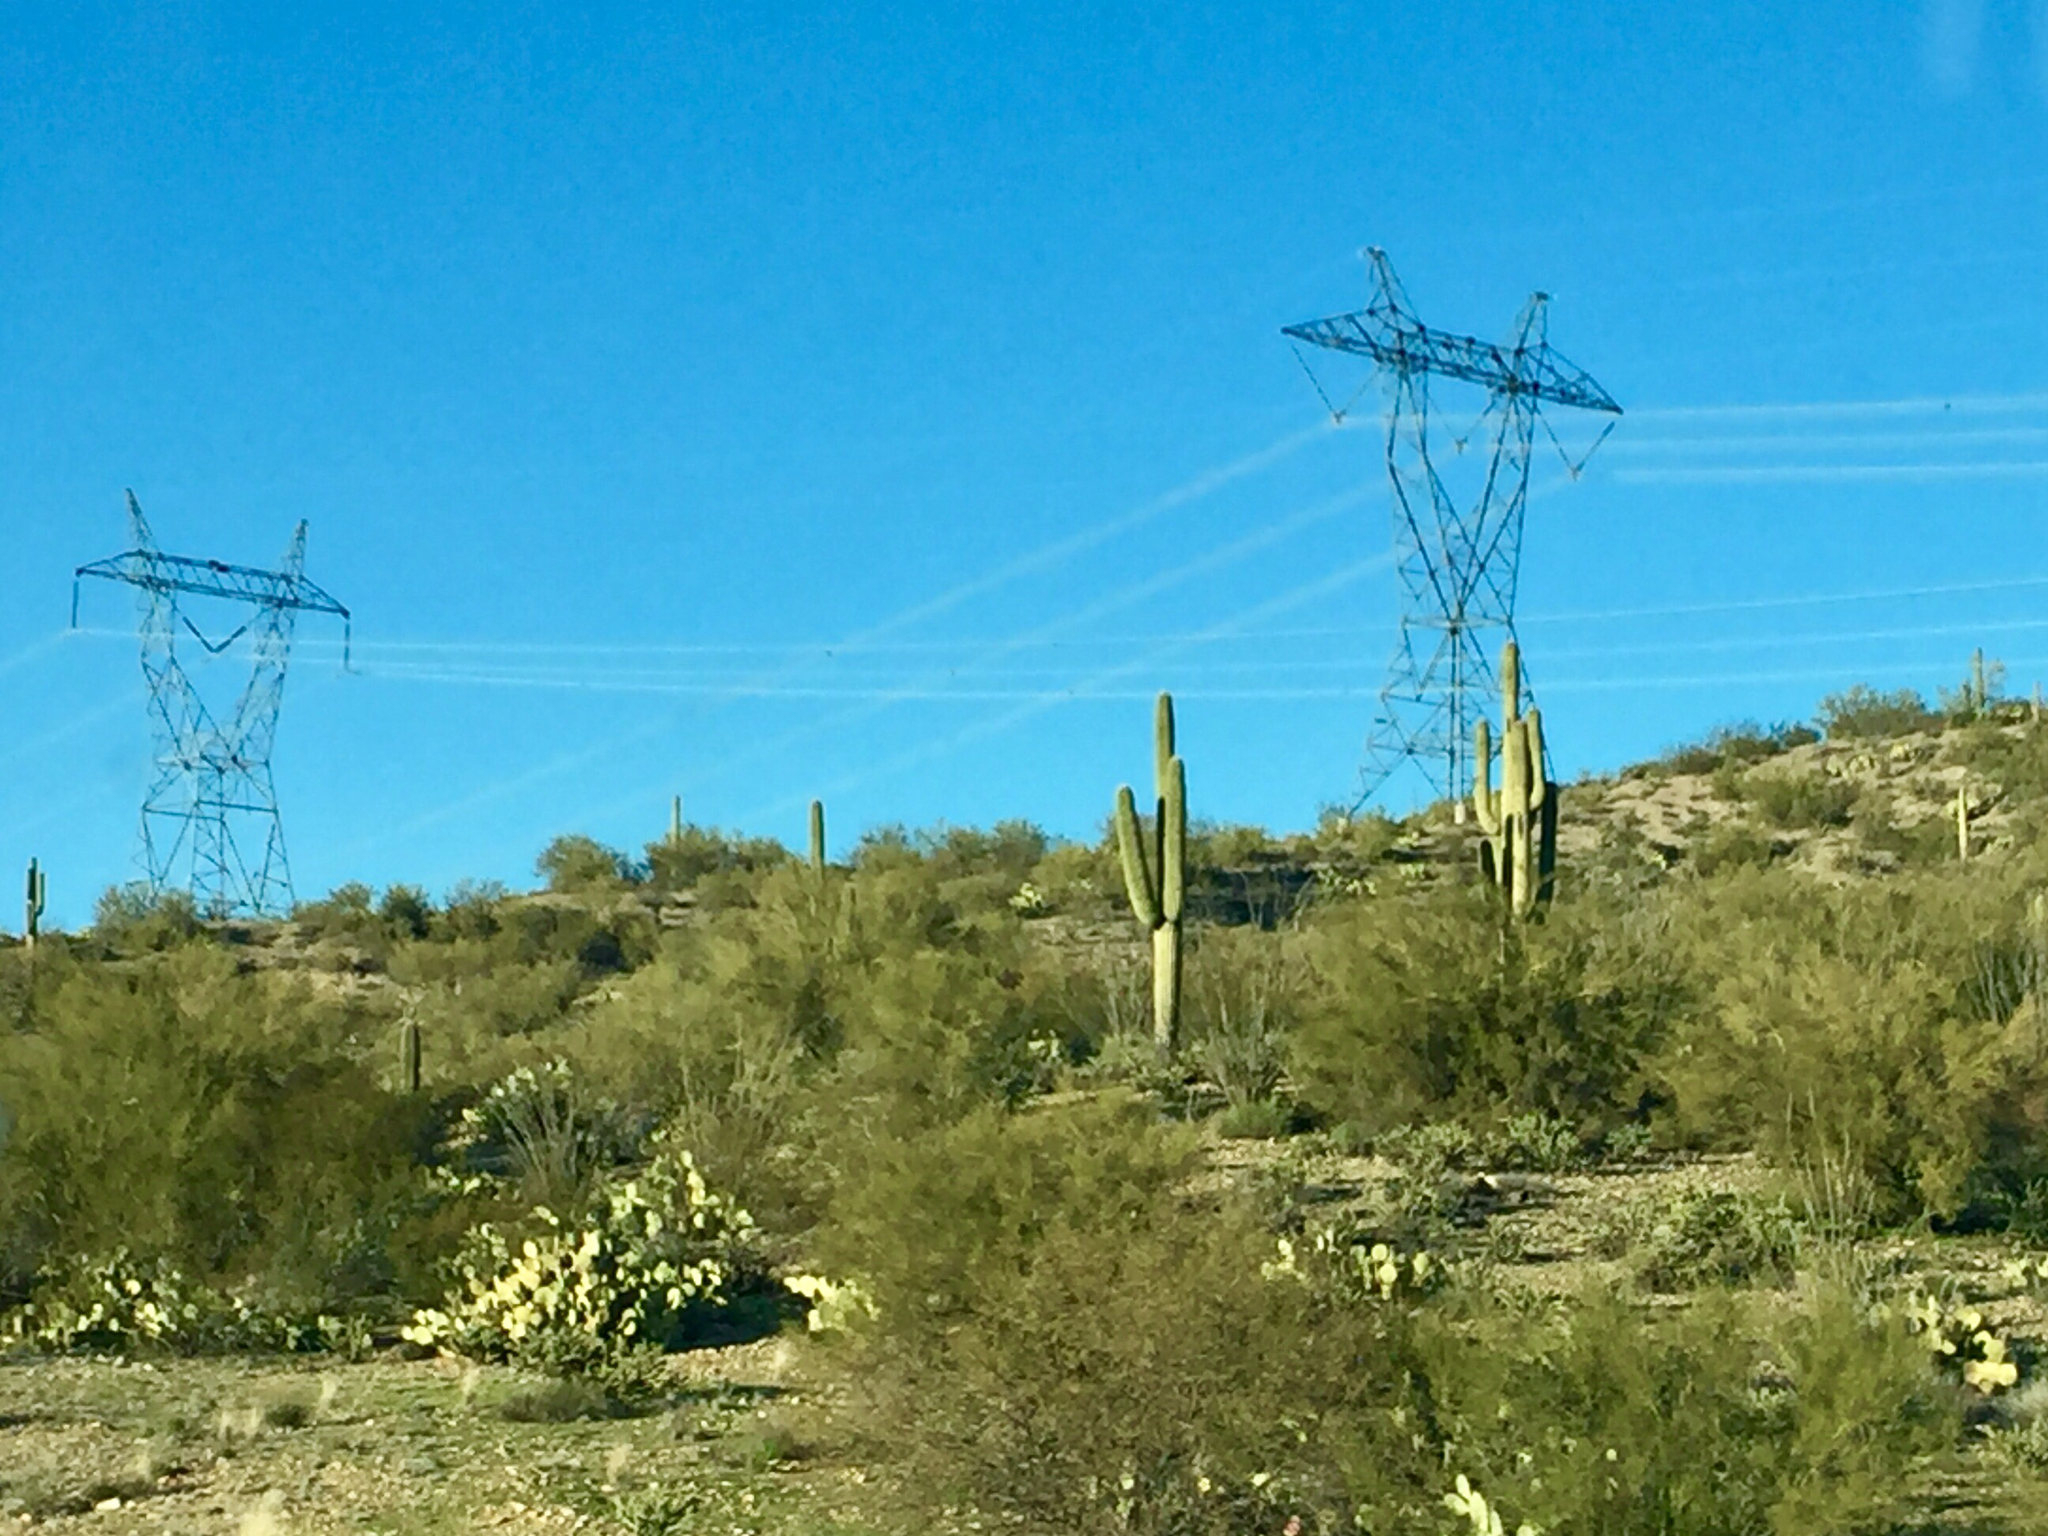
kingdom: Plantae
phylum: Tracheophyta
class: Magnoliopsida
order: Caryophyllales
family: Cactaceae
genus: Carnegiea
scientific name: Carnegiea gigantea
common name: Saguaro
